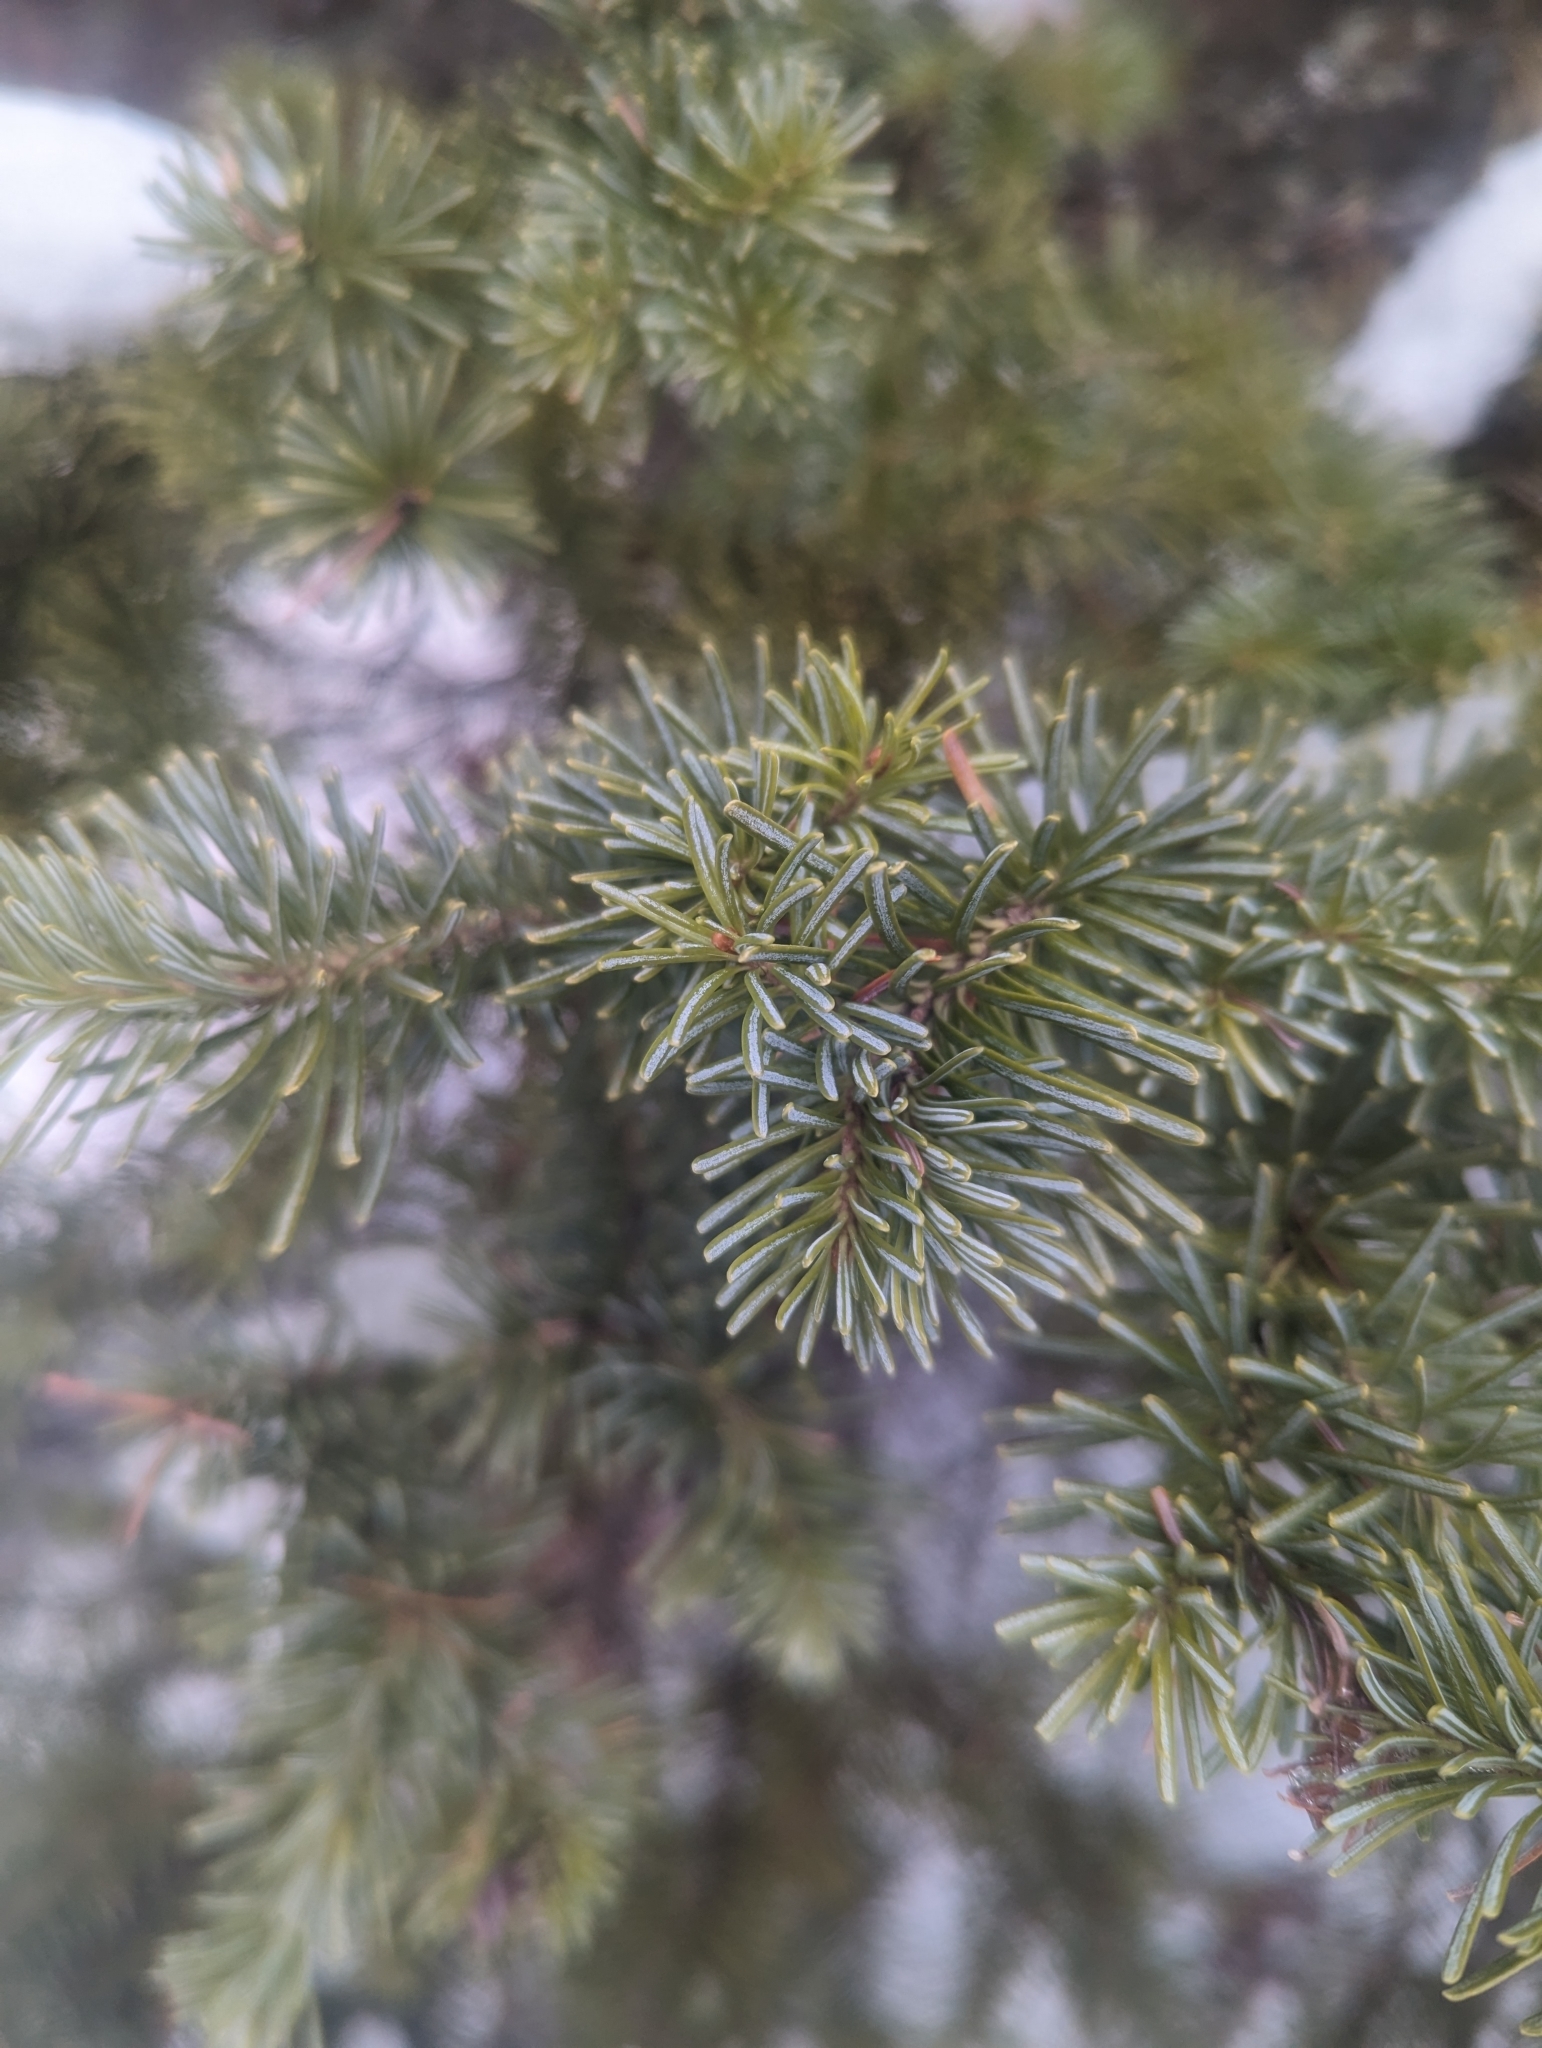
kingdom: Plantae
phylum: Tracheophyta
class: Pinopsida
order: Pinales
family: Pinaceae
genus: Abies
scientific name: Abies lasiocarpa
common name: Subalpine fir
